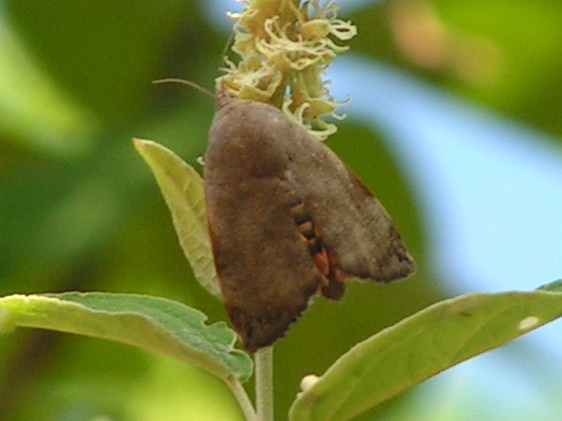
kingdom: Animalia
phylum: Arthropoda
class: Insecta
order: Lepidoptera
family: Hyblaeidae
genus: Hyblaea
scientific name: Hyblaea
